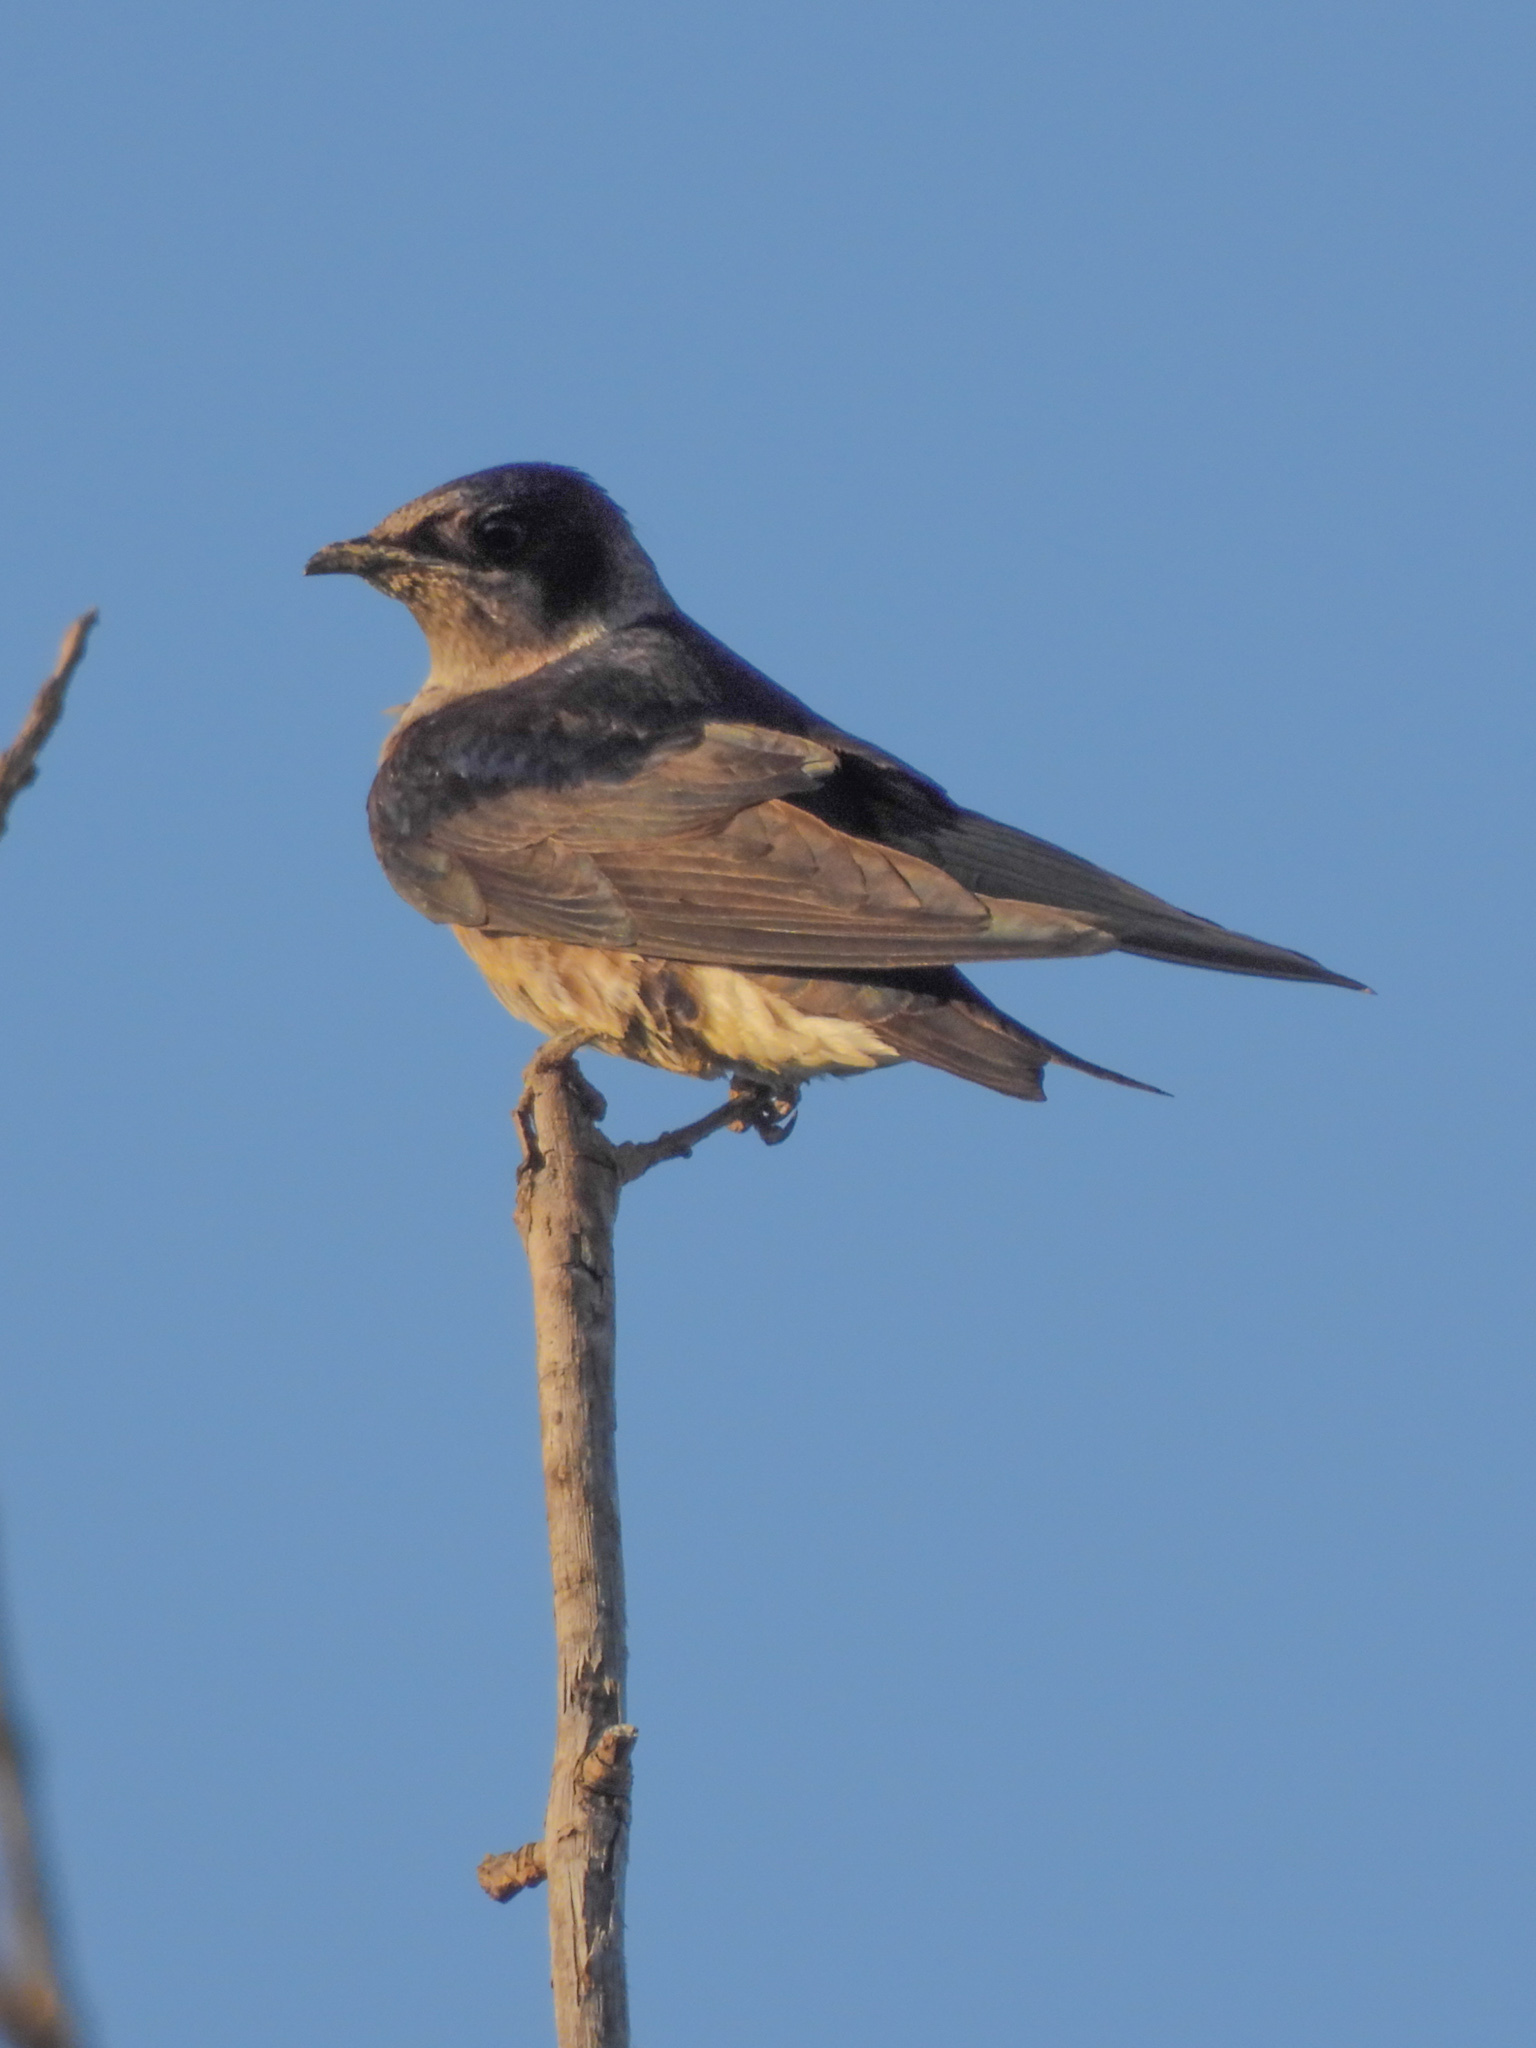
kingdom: Animalia
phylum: Chordata
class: Aves
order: Passeriformes
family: Hirundinidae
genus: Progne
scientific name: Progne subis
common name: Purple martin
